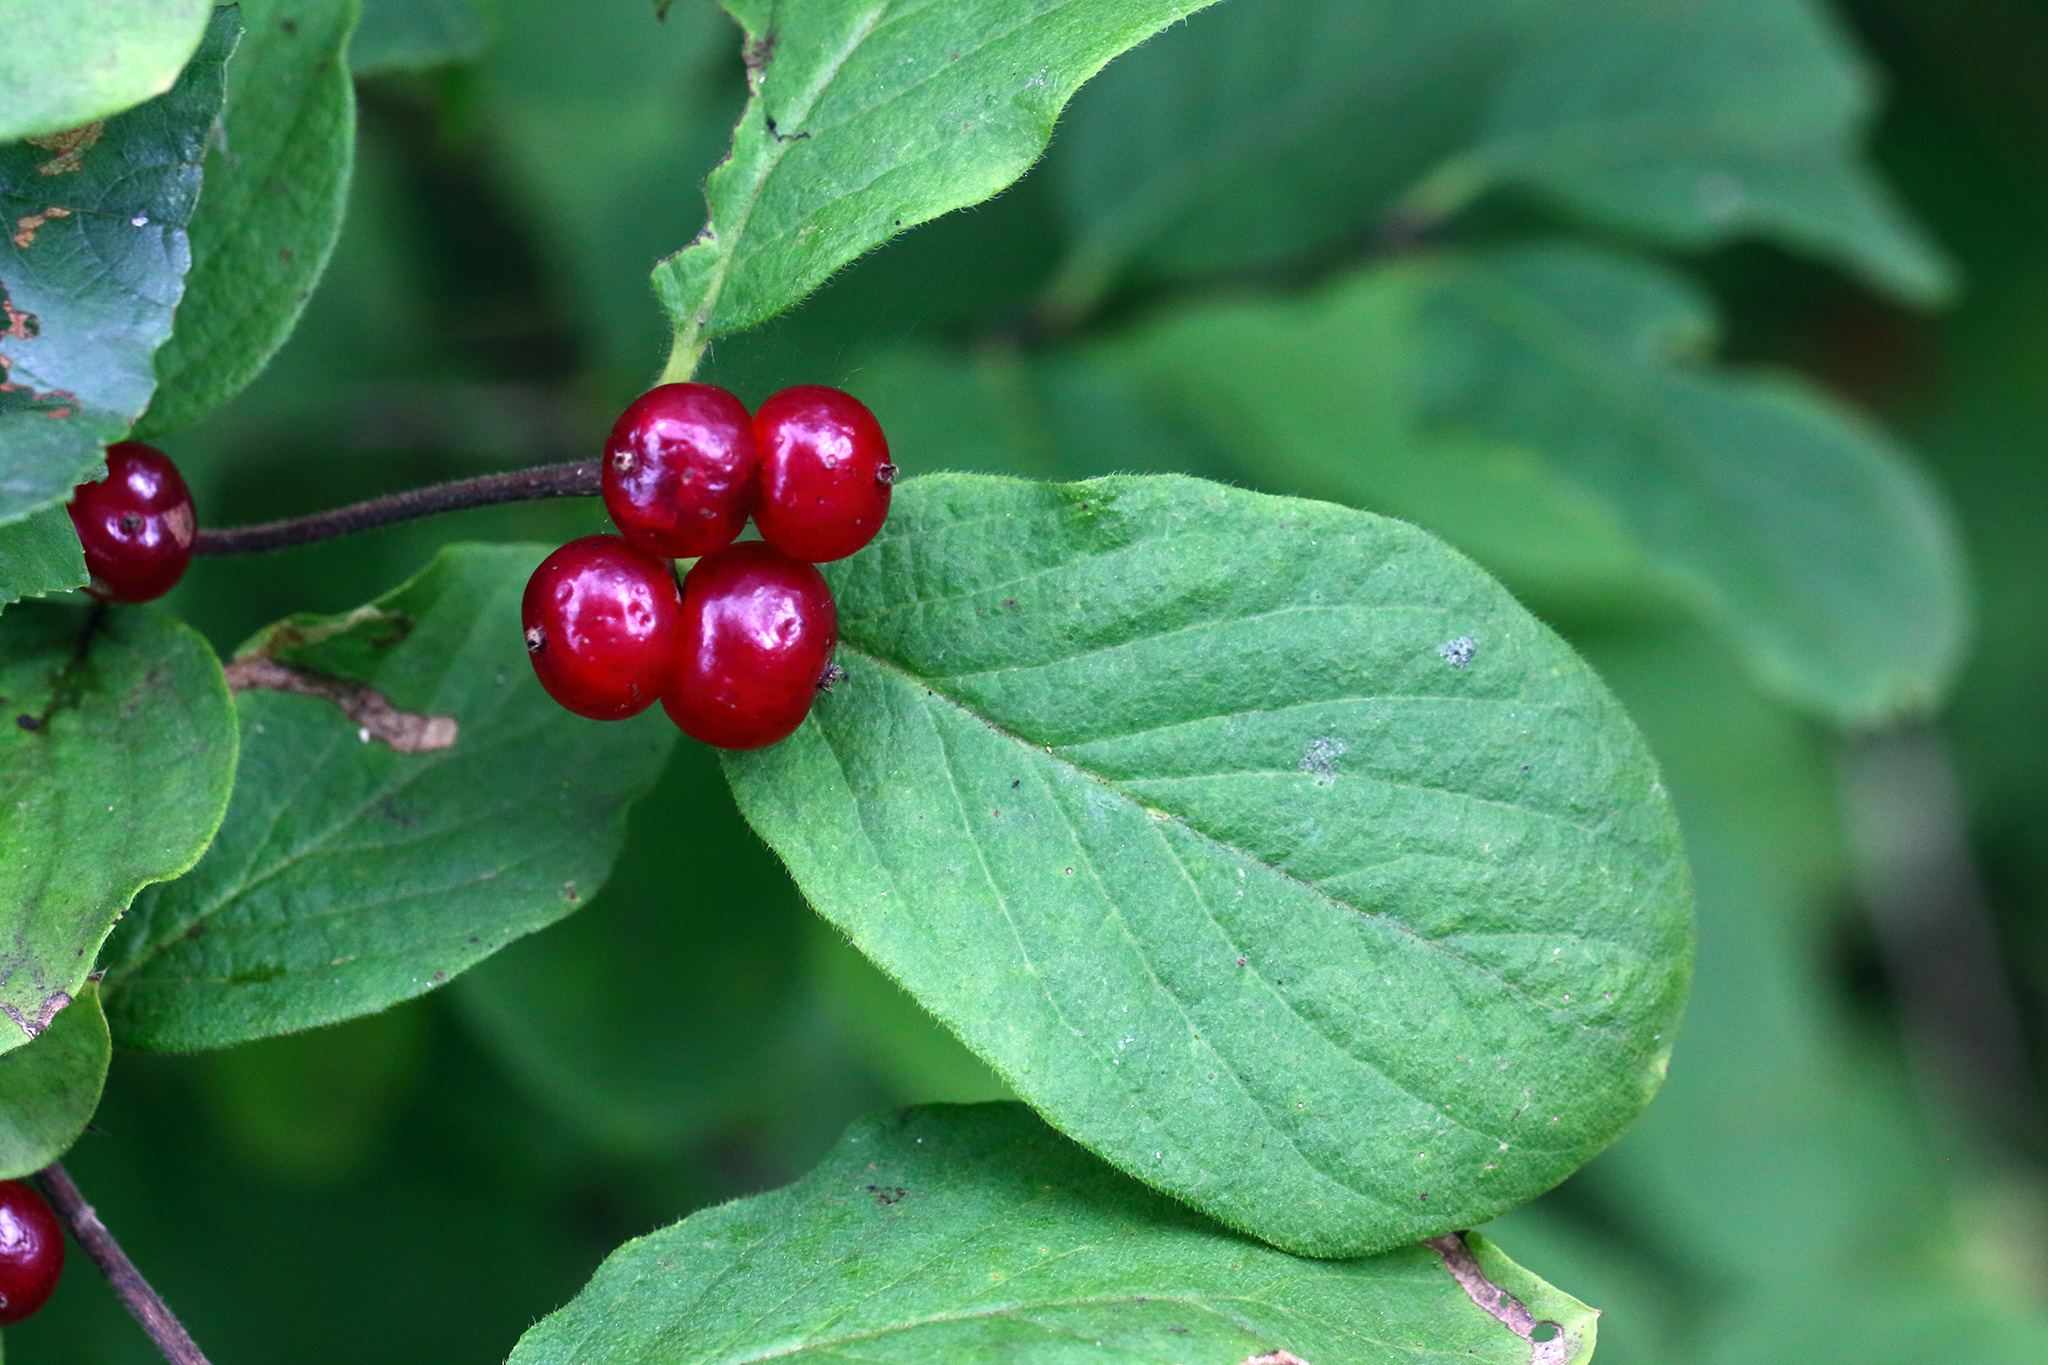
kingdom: Plantae
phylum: Tracheophyta
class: Magnoliopsida
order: Dipsacales
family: Caprifoliaceae
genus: Lonicera
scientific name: Lonicera xylosteum
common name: Fly honeysuckle
